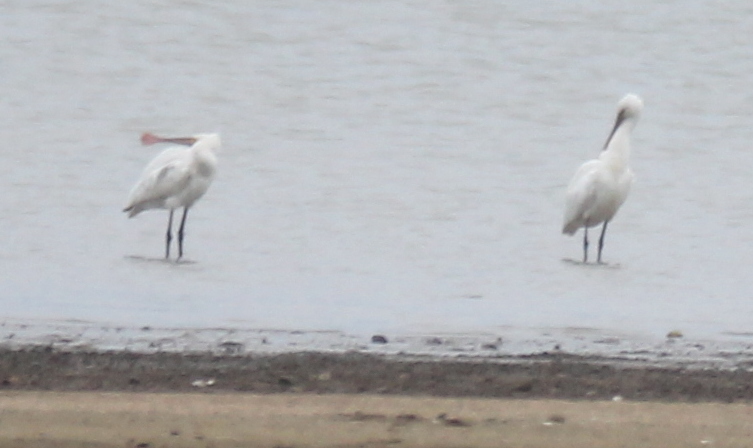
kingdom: Animalia
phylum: Chordata
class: Aves
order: Pelecaniformes
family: Threskiornithidae
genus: Platalea
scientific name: Platalea leucorodia
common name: Eurasian spoonbill
